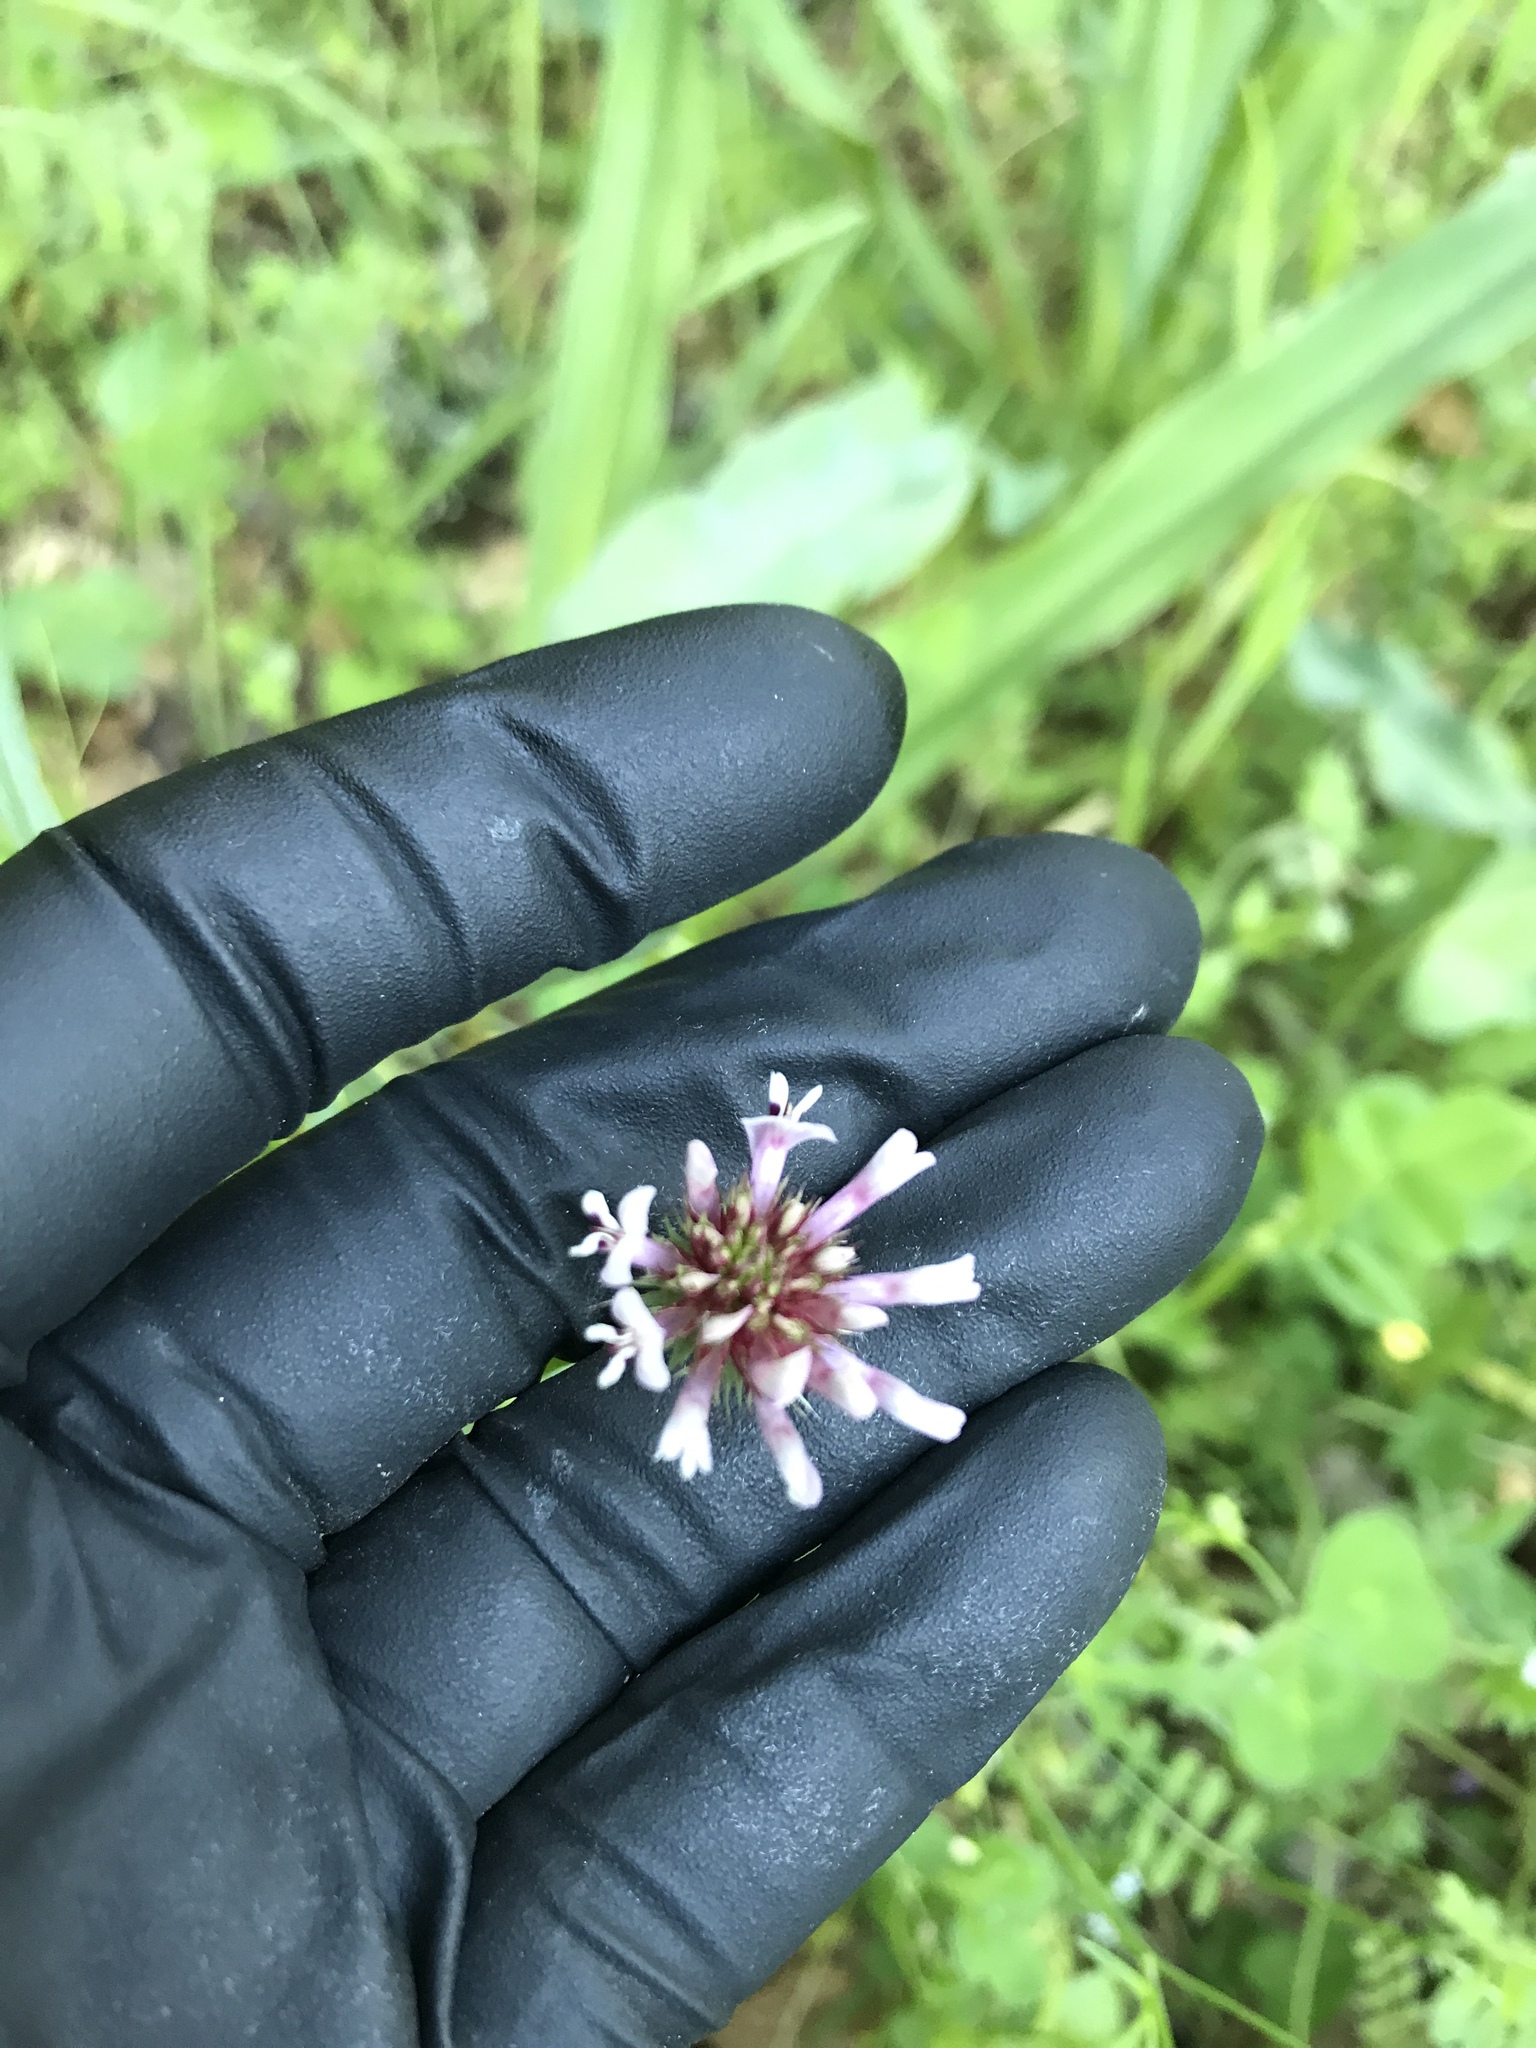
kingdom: Plantae
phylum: Tracheophyta
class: Magnoliopsida
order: Fabales
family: Fabaceae
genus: Trifolium
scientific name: Trifolium willdenovii
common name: Tomcat clover
